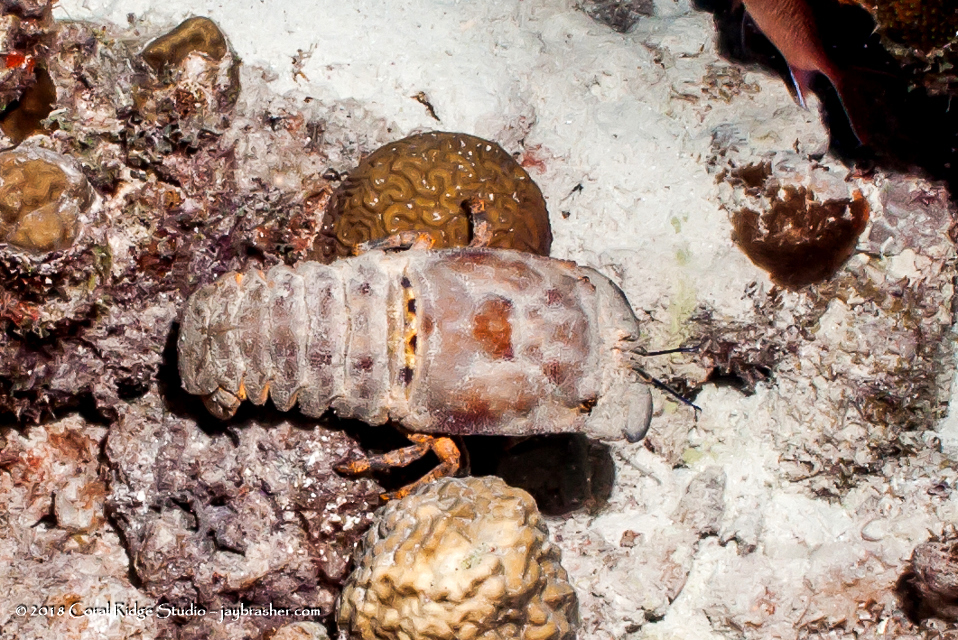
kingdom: Animalia
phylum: Arthropoda
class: Malacostraca
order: Decapoda
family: Scyllaridae
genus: Scyllarides
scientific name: Scyllarides aequinoctialis
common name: Spanish slipper lobster
